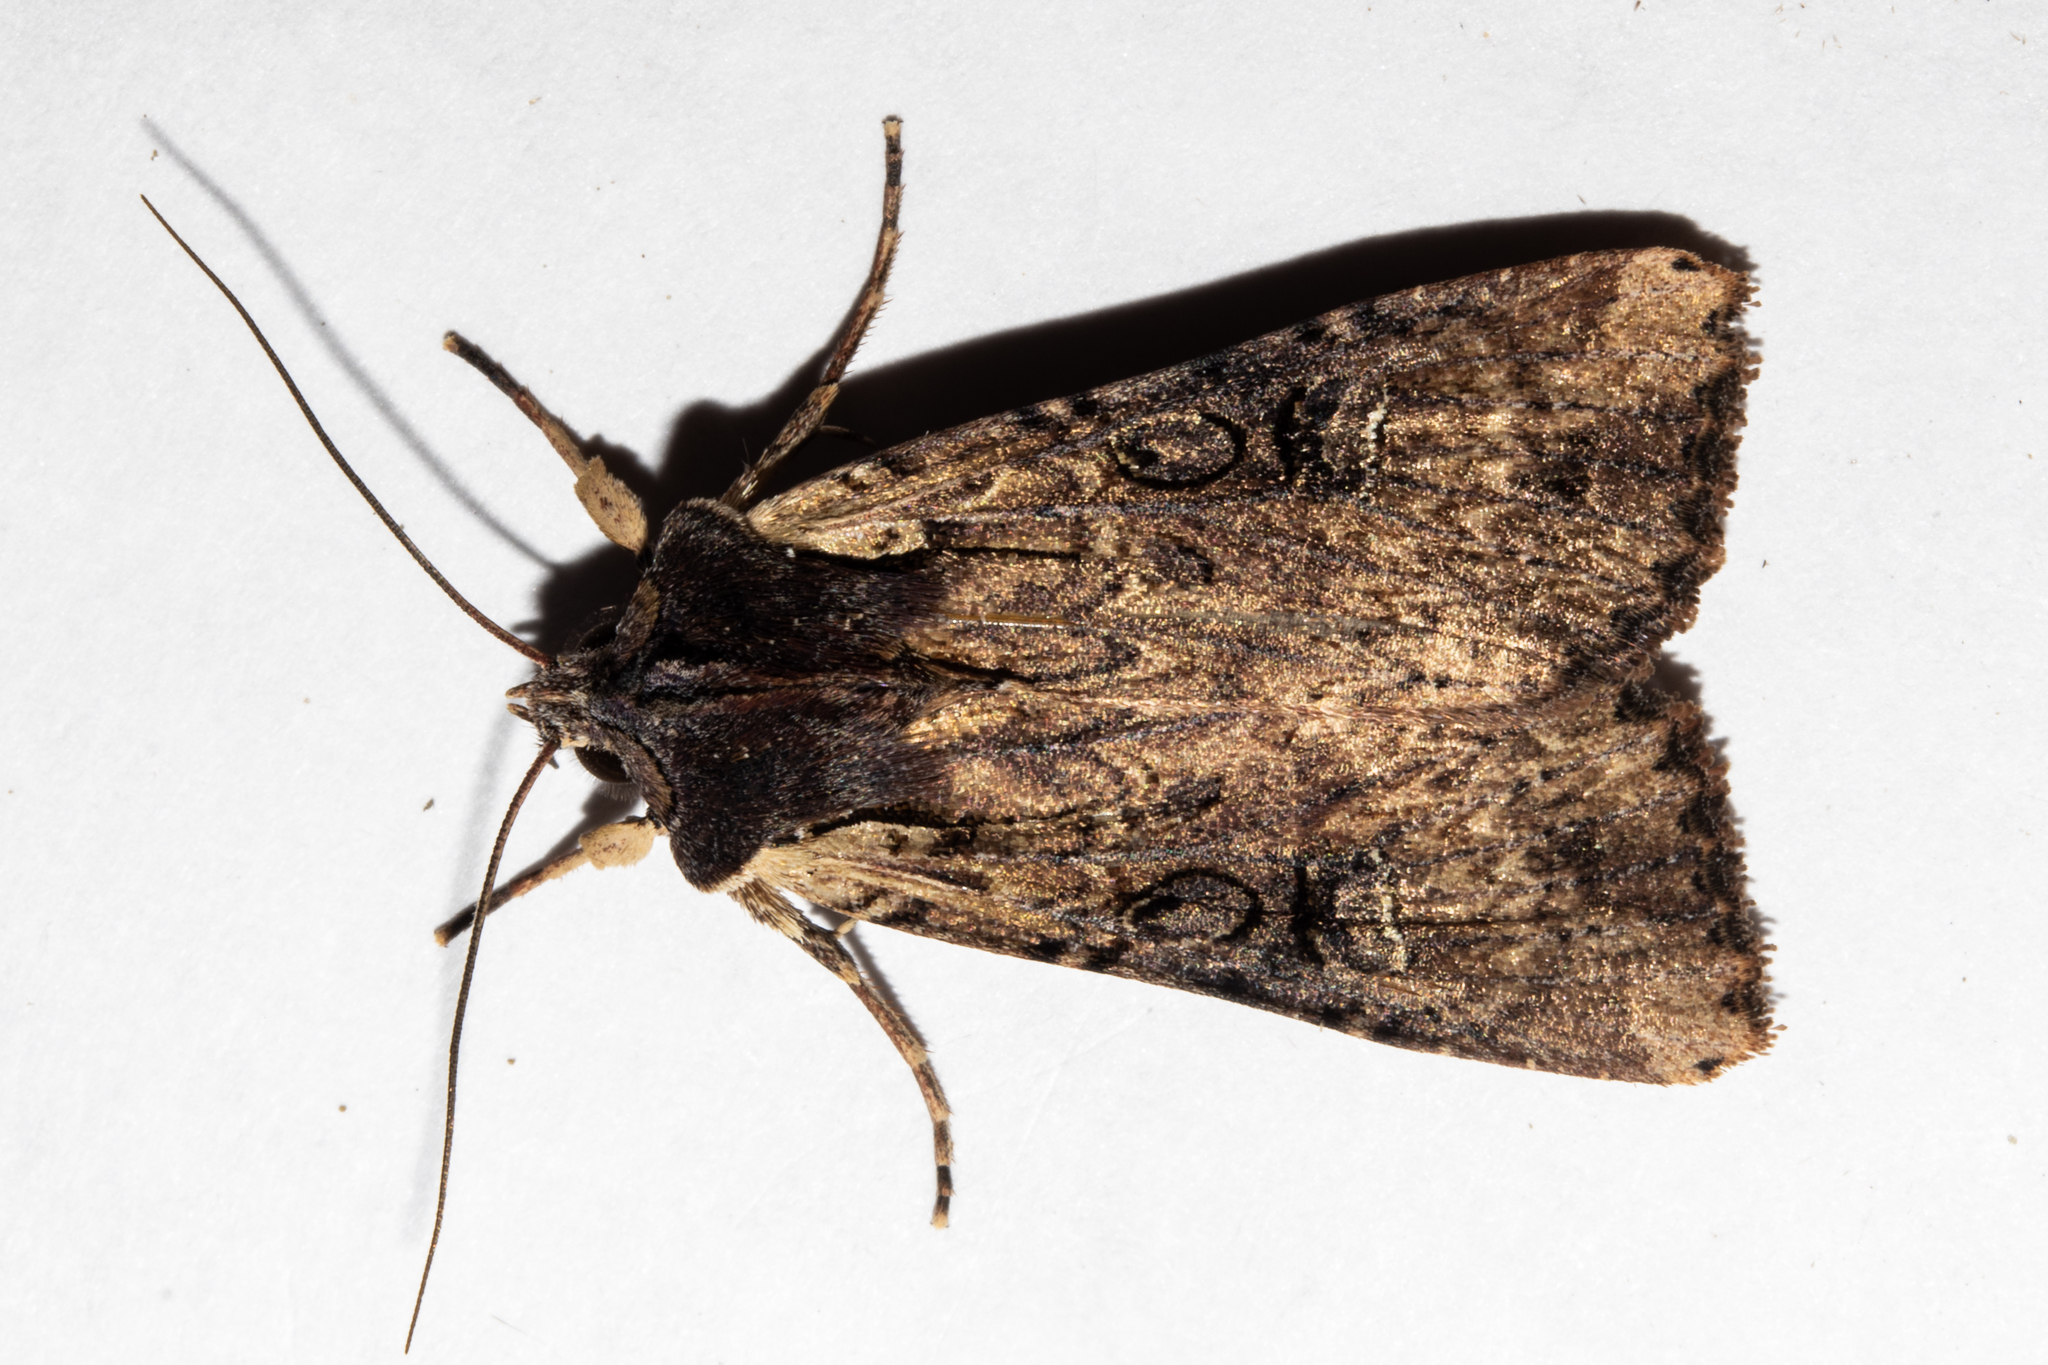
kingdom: Animalia
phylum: Arthropoda
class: Insecta
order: Lepidoptera
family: Noctuidae
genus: Ichneutica
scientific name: Ichneutica omoplaca
